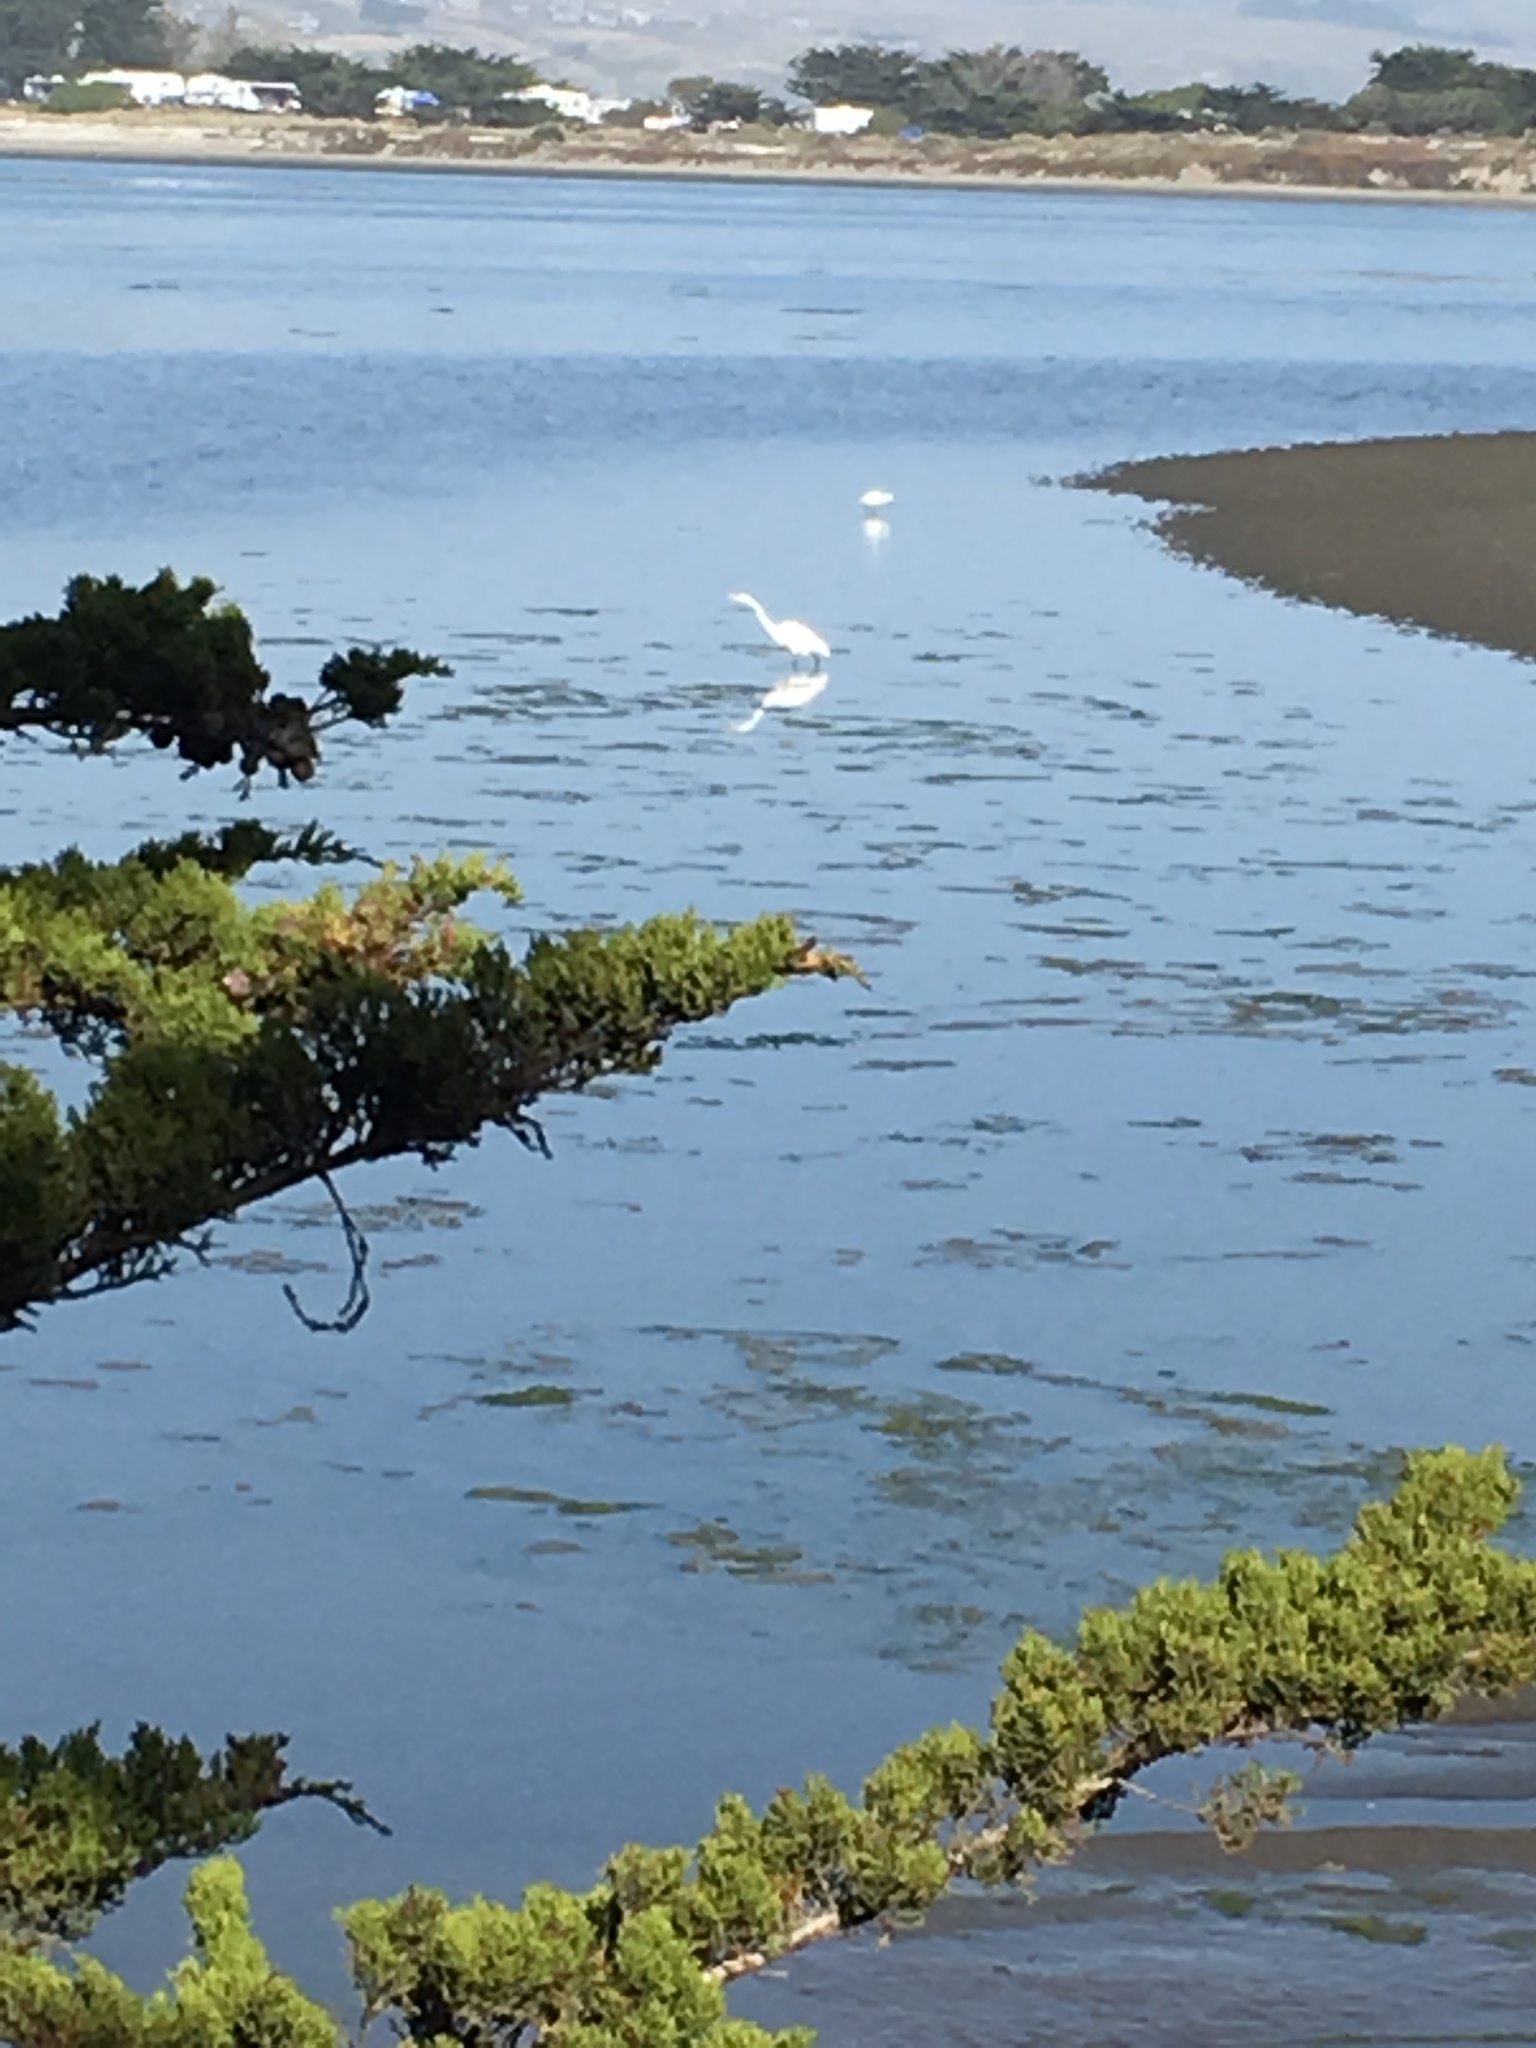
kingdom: Animalia
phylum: Chordata
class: Aves
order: Pelecaniformes
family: Ardeidae
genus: Ardea
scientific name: Ardea alba
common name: Great egret
